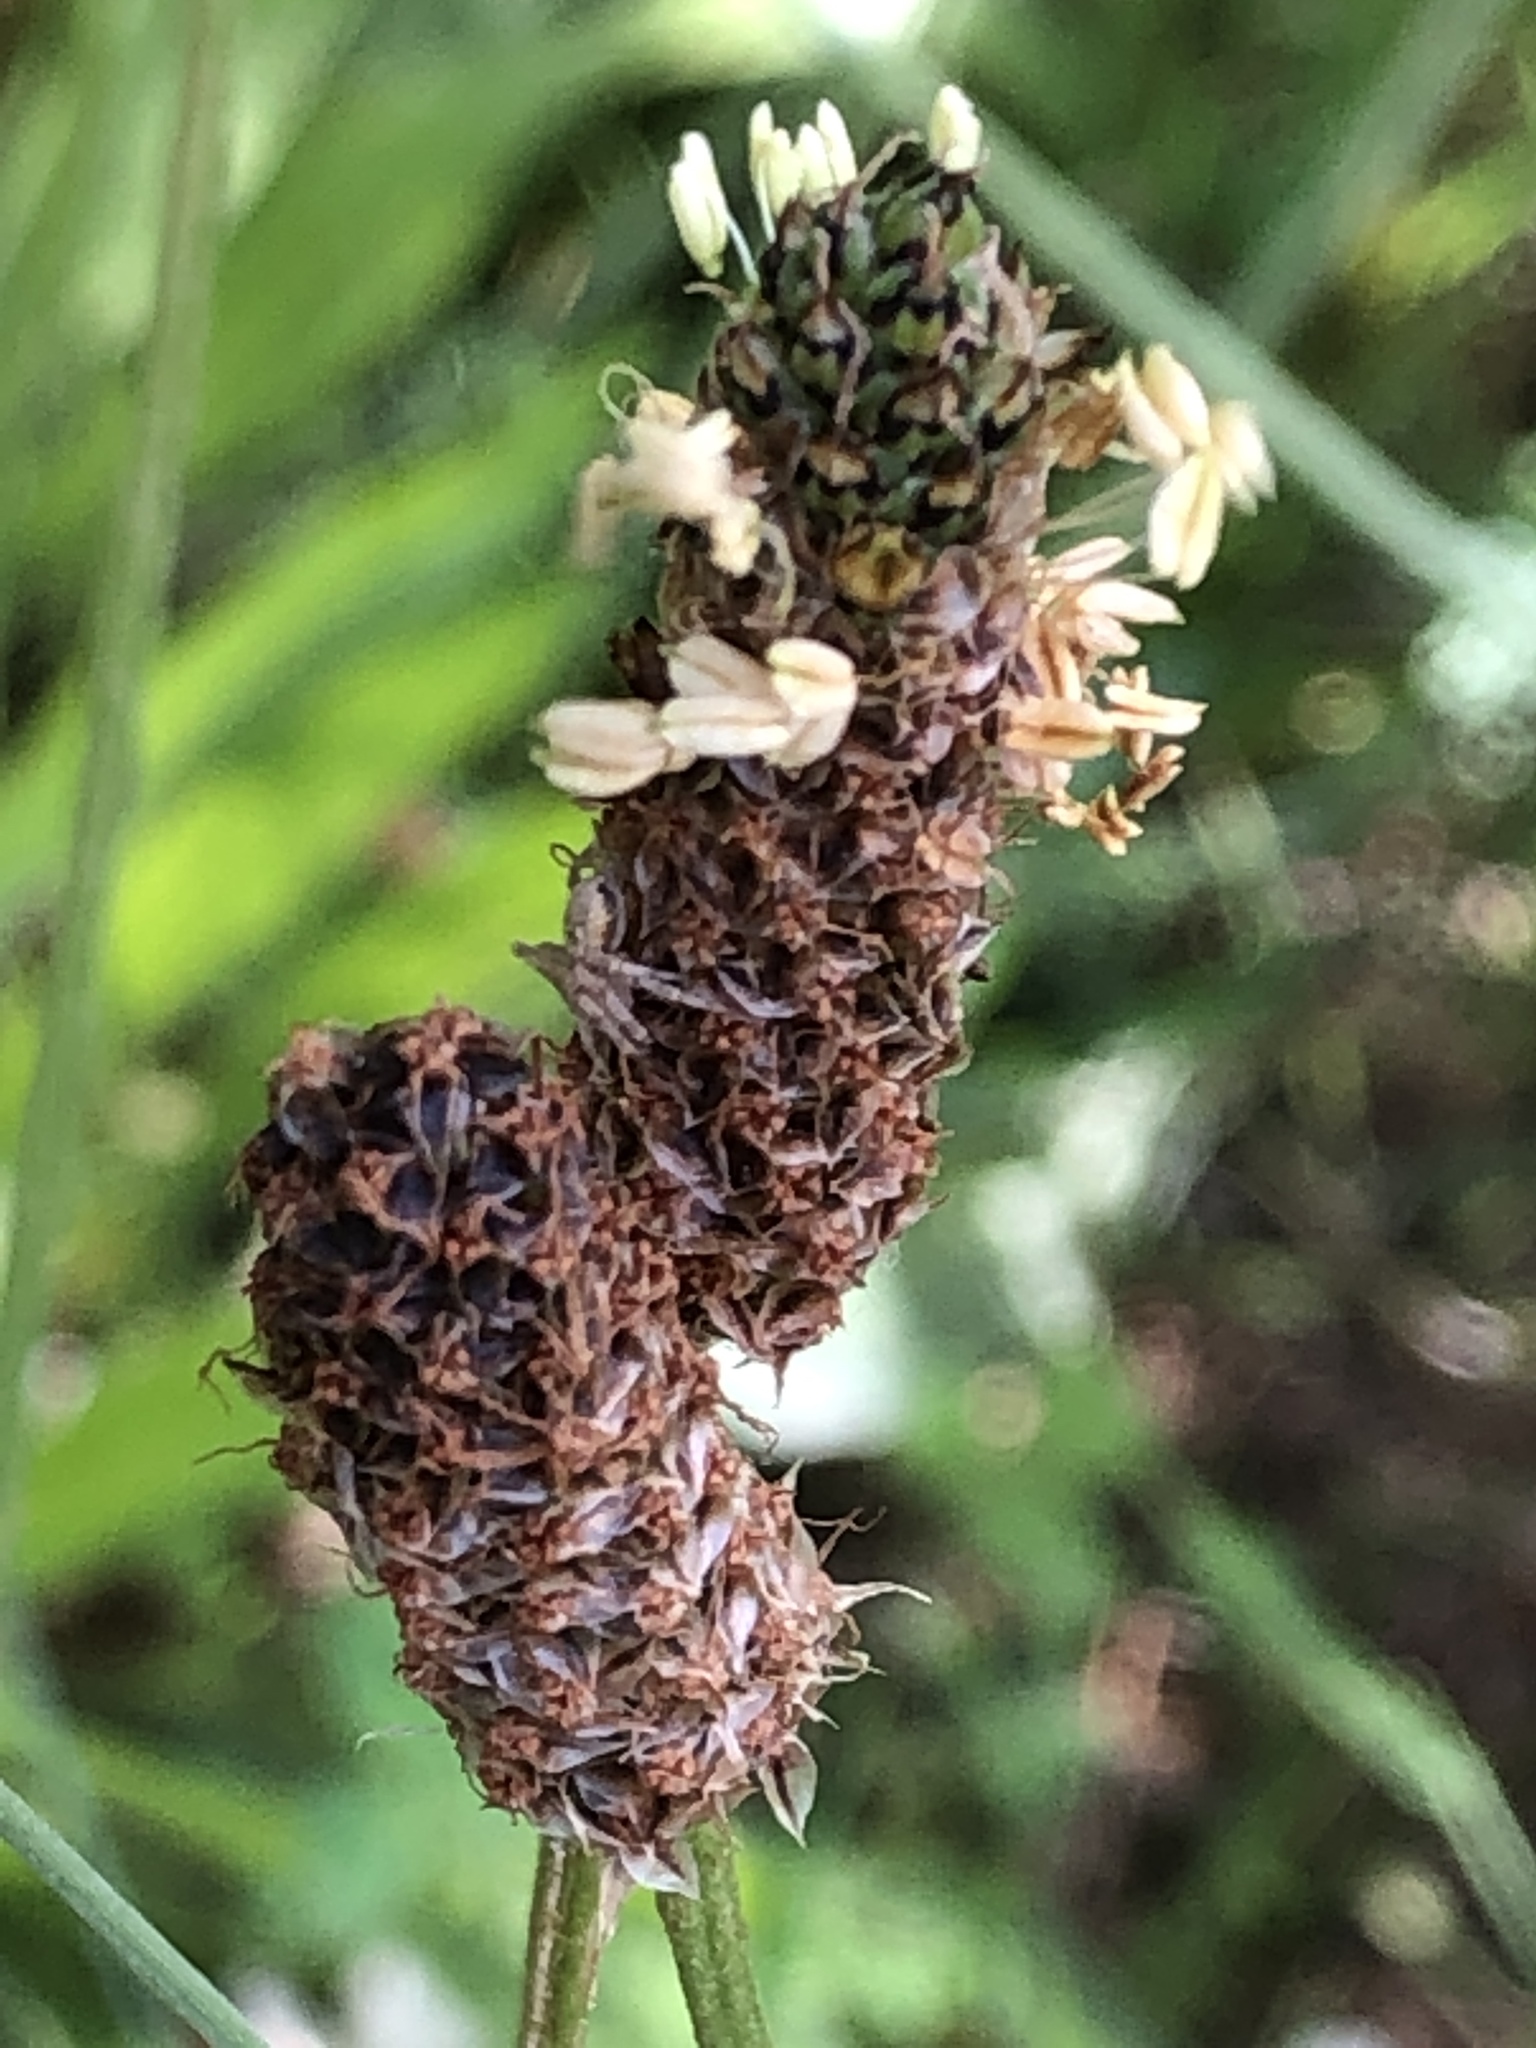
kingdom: Plantae
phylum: Tracheophyta
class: Magnoliopsida
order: Lamiales
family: Plantaginaceae
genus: Plantago
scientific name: Plantago lanceolata
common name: Ribwort plantain
